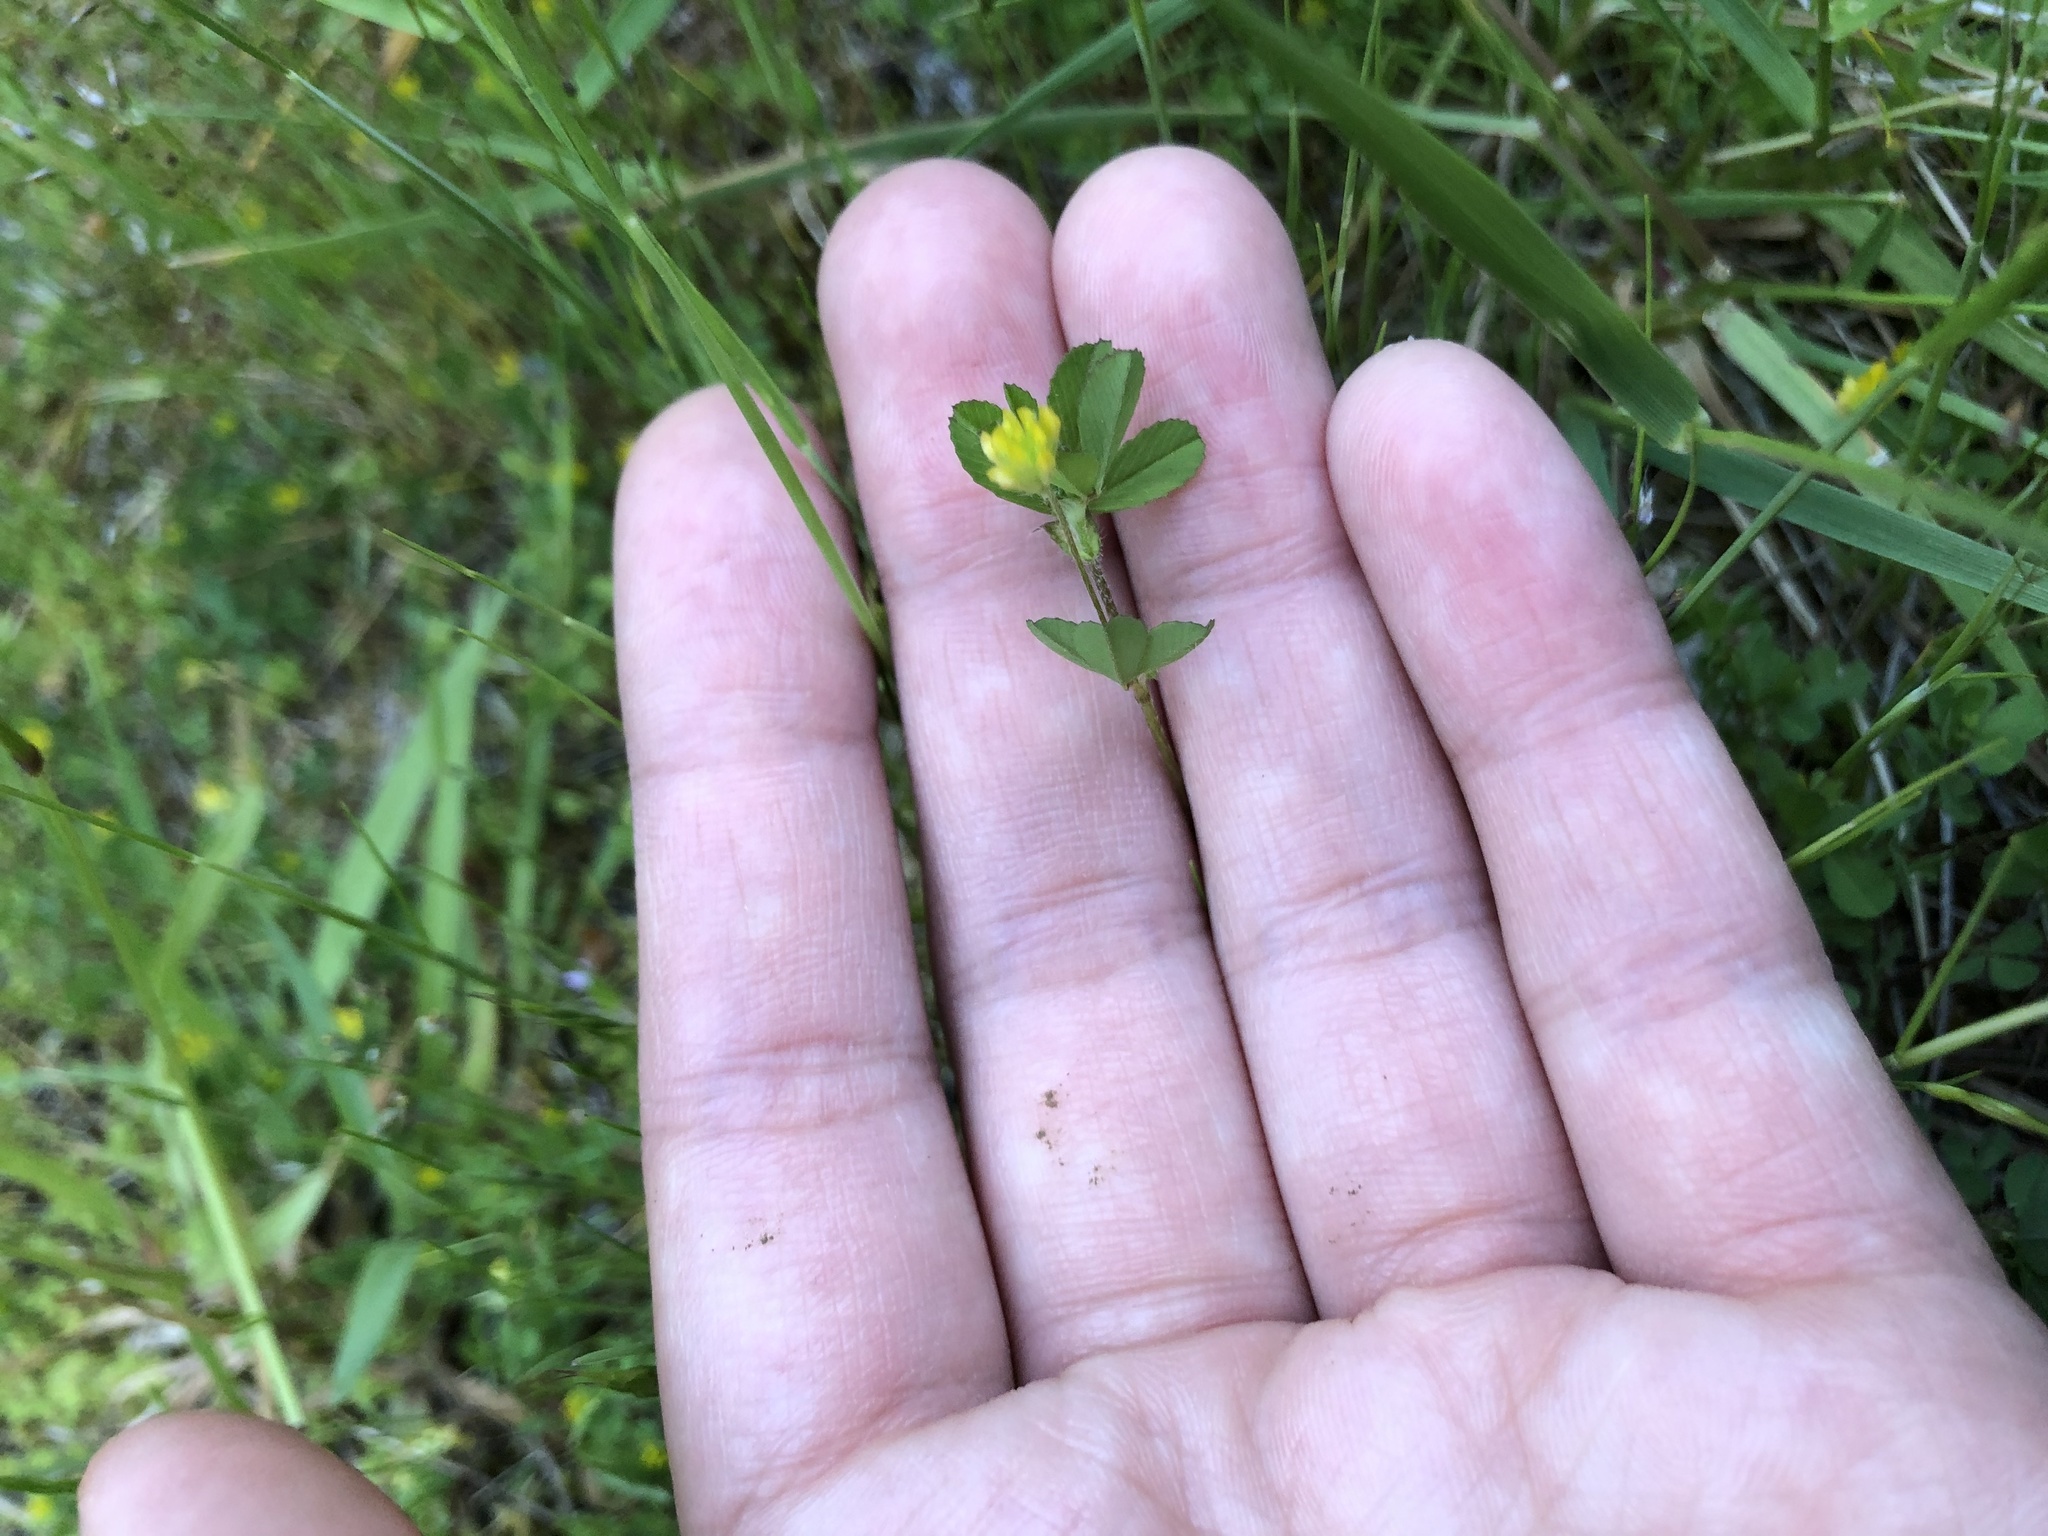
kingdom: Plantae
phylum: Tracheophyta
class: Magnoliopsida
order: Fabales
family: Fabaceae
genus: Trifolium
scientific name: Trifolium dubium
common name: Suckling clover
